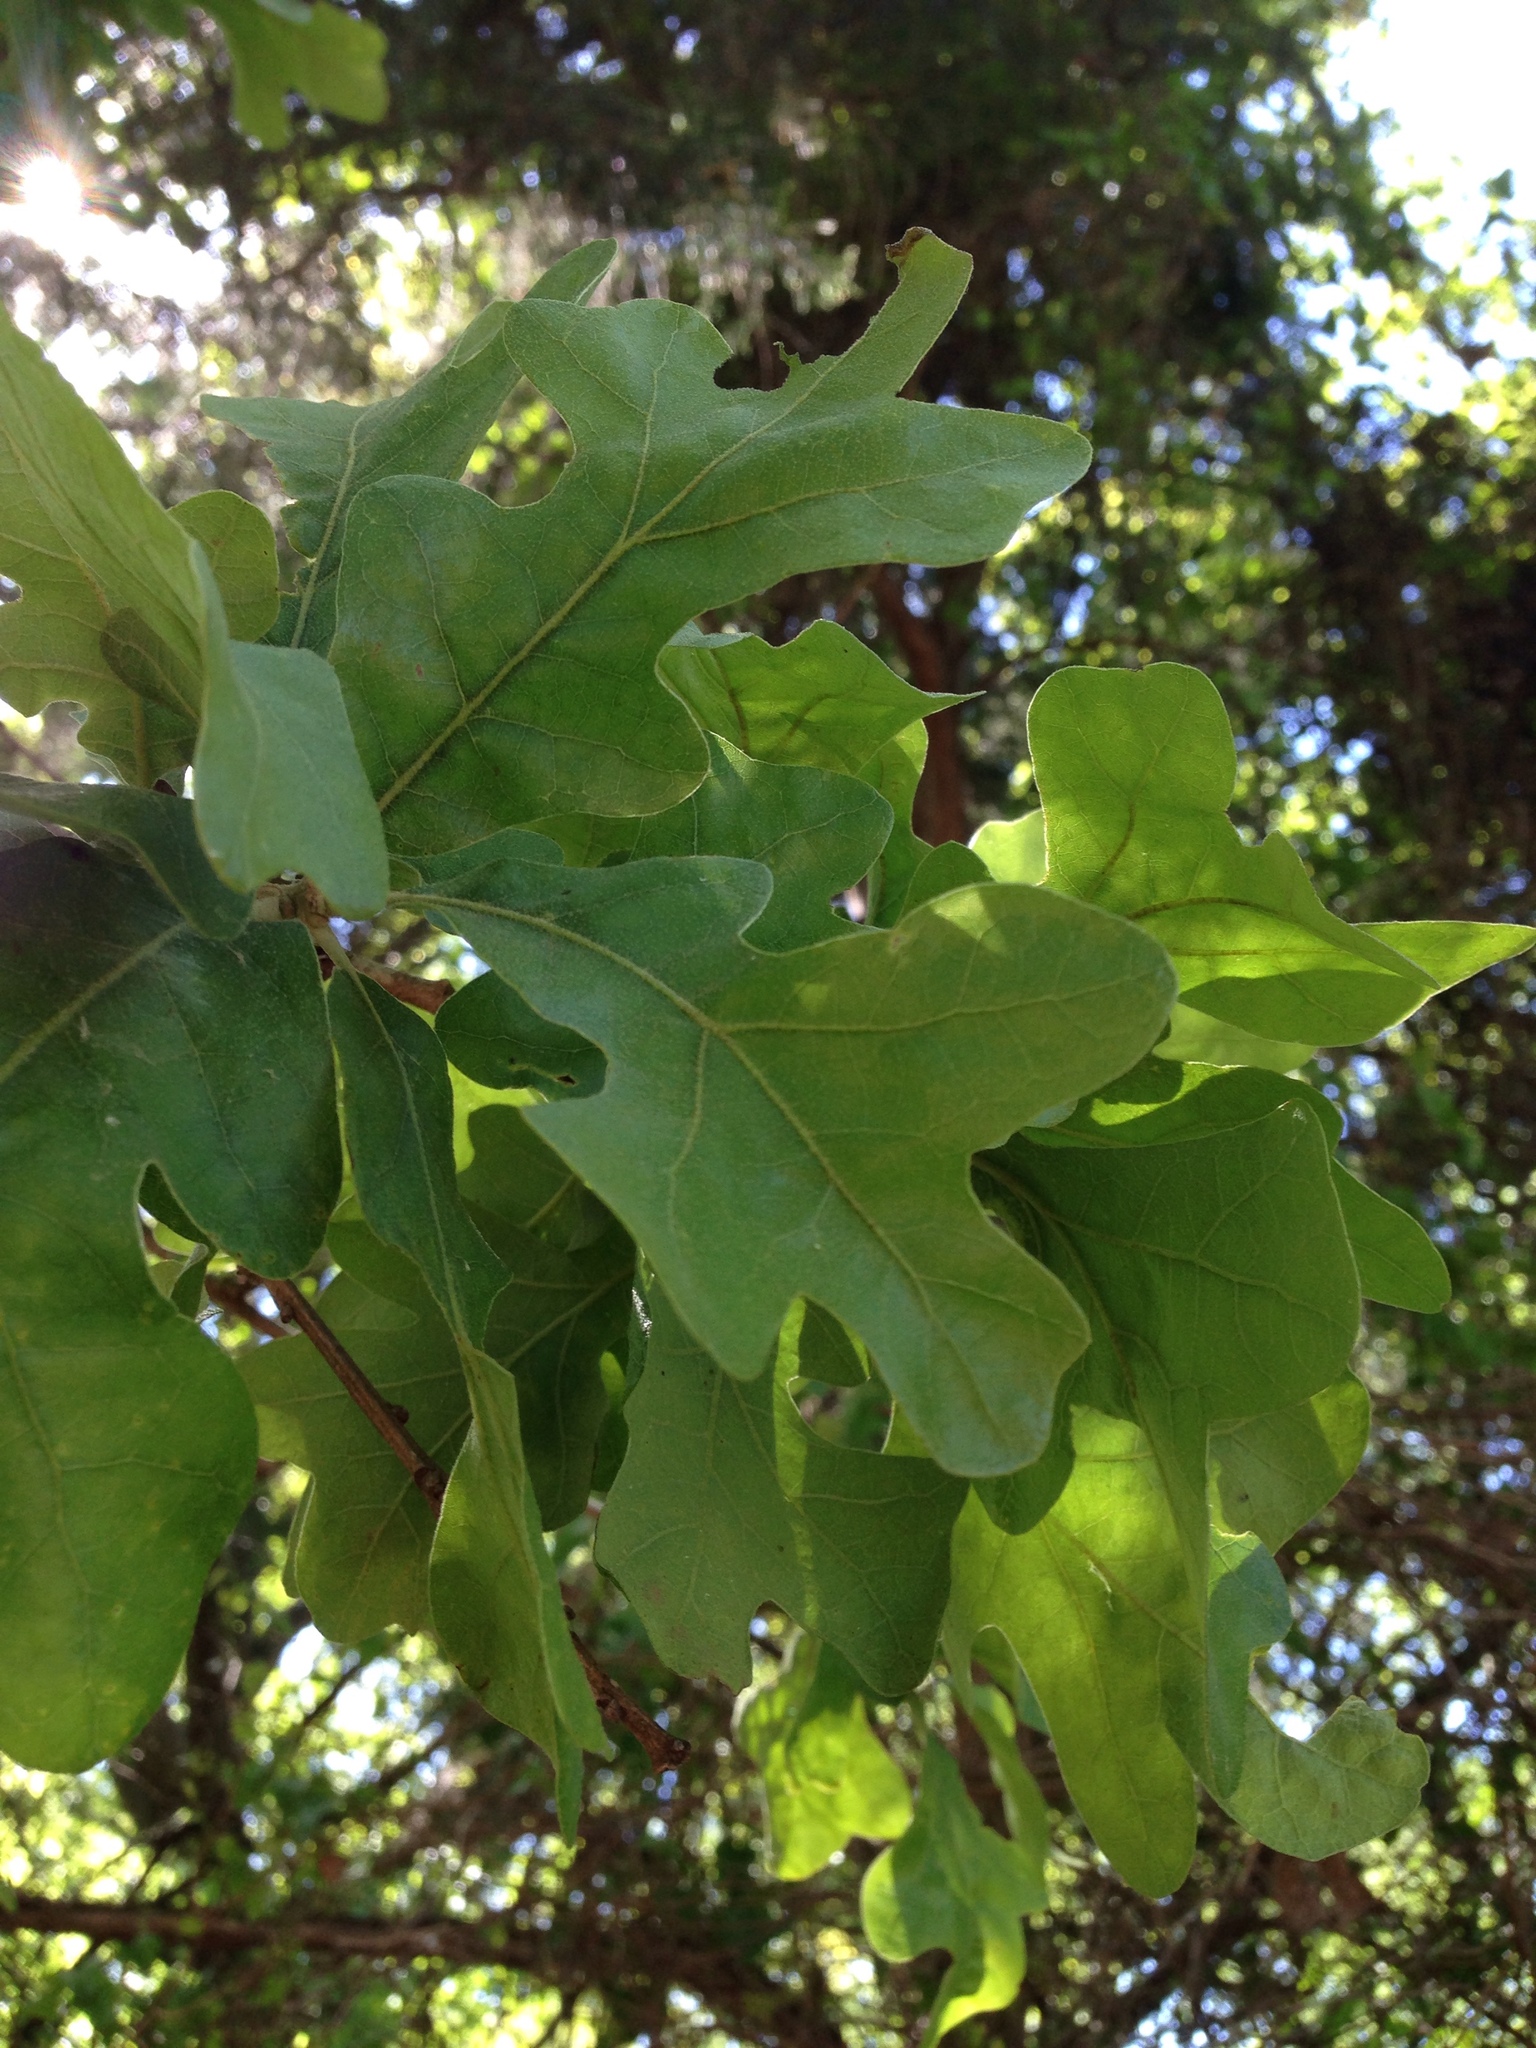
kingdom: Plantae
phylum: Tracheophyta
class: Magnoliopsida
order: Fagales
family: Fagaceae
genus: Quercus
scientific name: Quercus stellata
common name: Post oak
